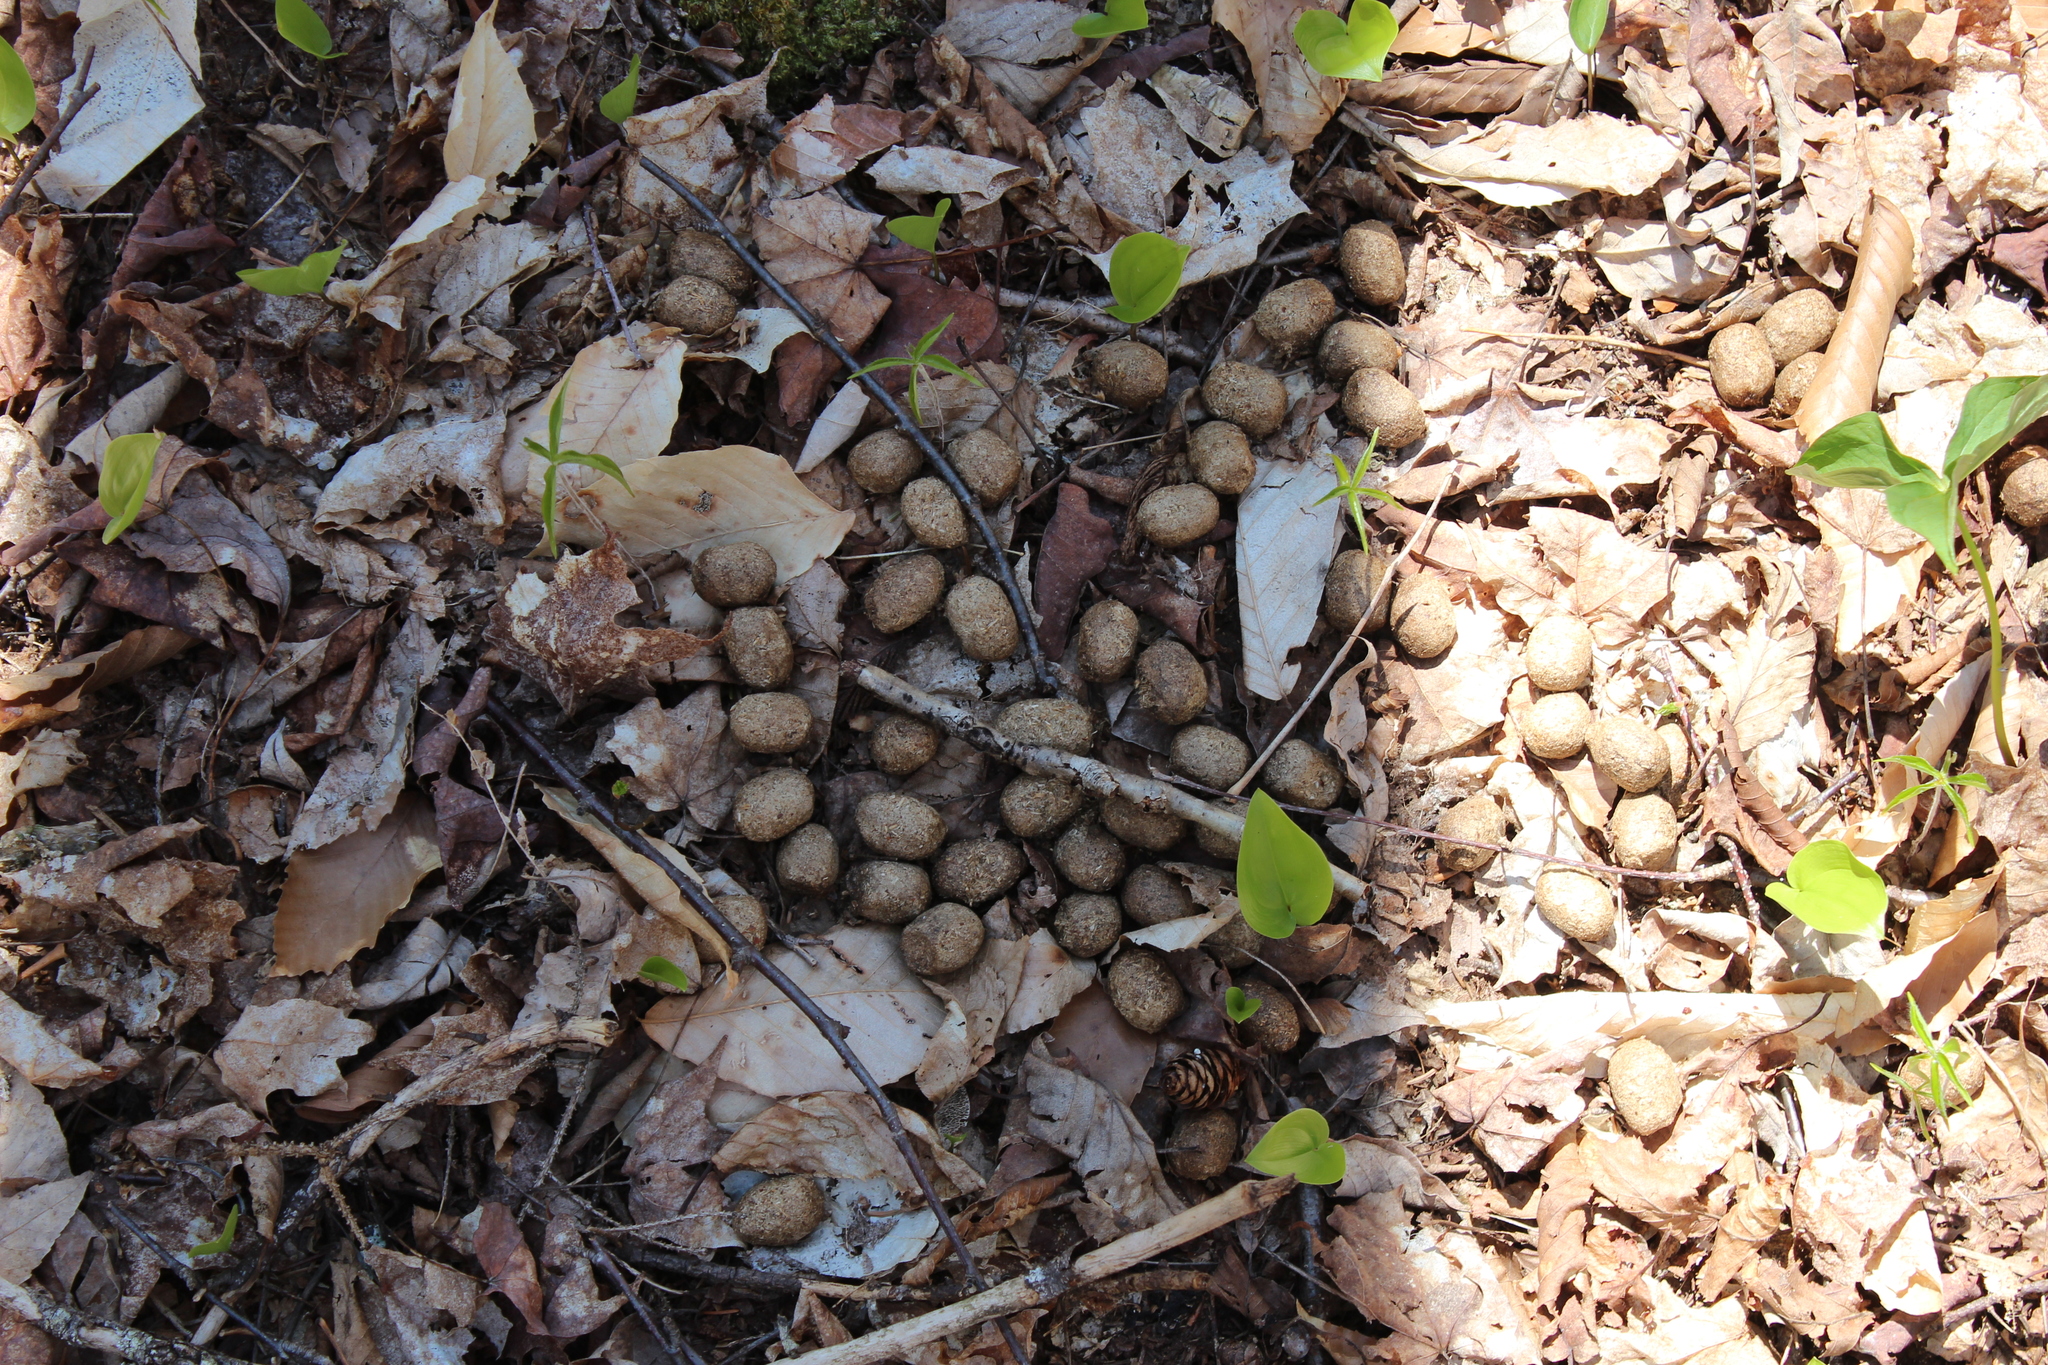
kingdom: Animalia
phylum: Chordata
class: Mammalia
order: Artiodactyla
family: Cervidae
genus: Alces
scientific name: Alces alces
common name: Moose
